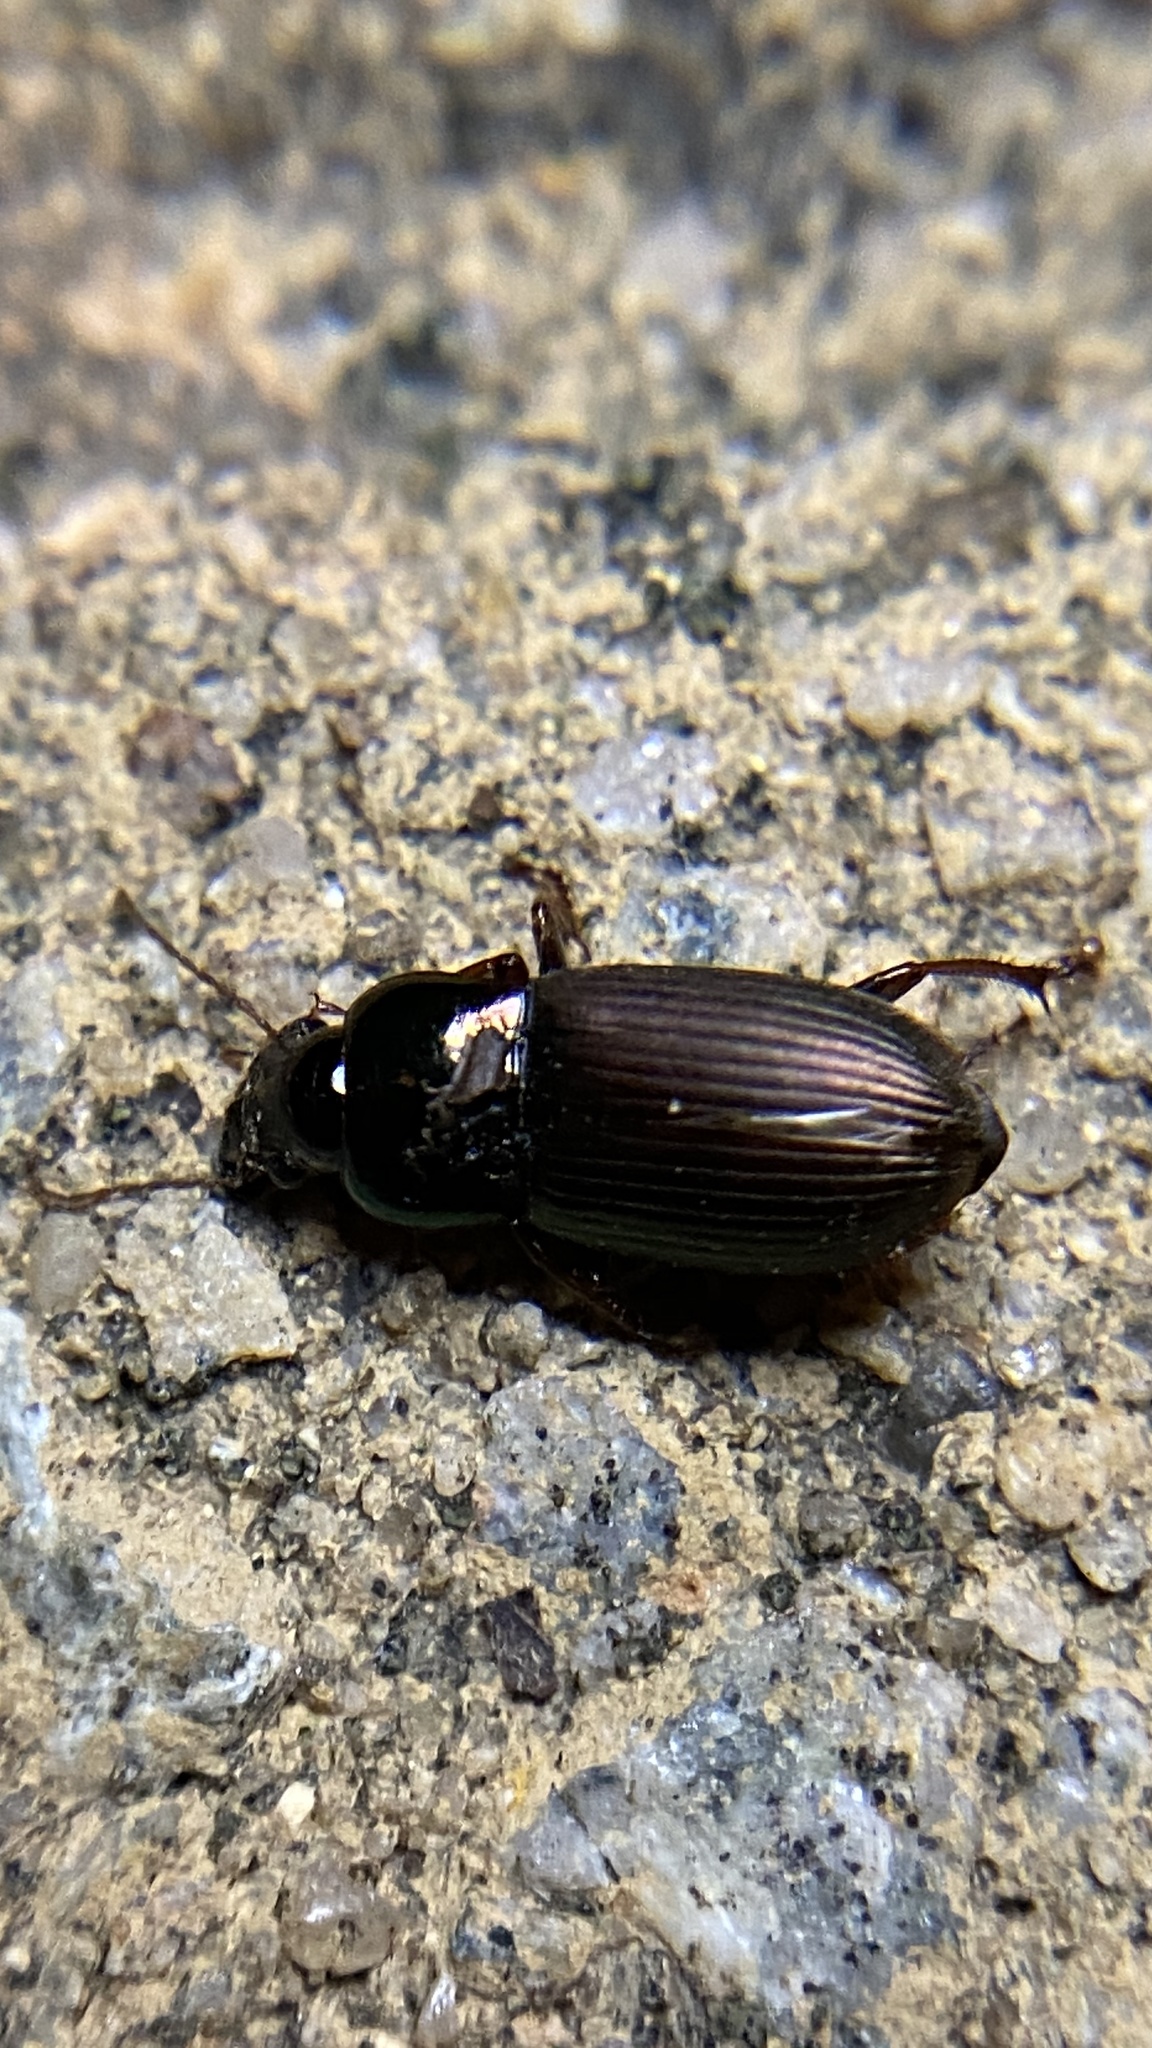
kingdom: Animalia
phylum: Arthropoda
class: Insecta
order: Coleoptera
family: Carabidae
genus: Harpalus
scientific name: Harpalus affinis
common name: Polychrome harp ground beetle
